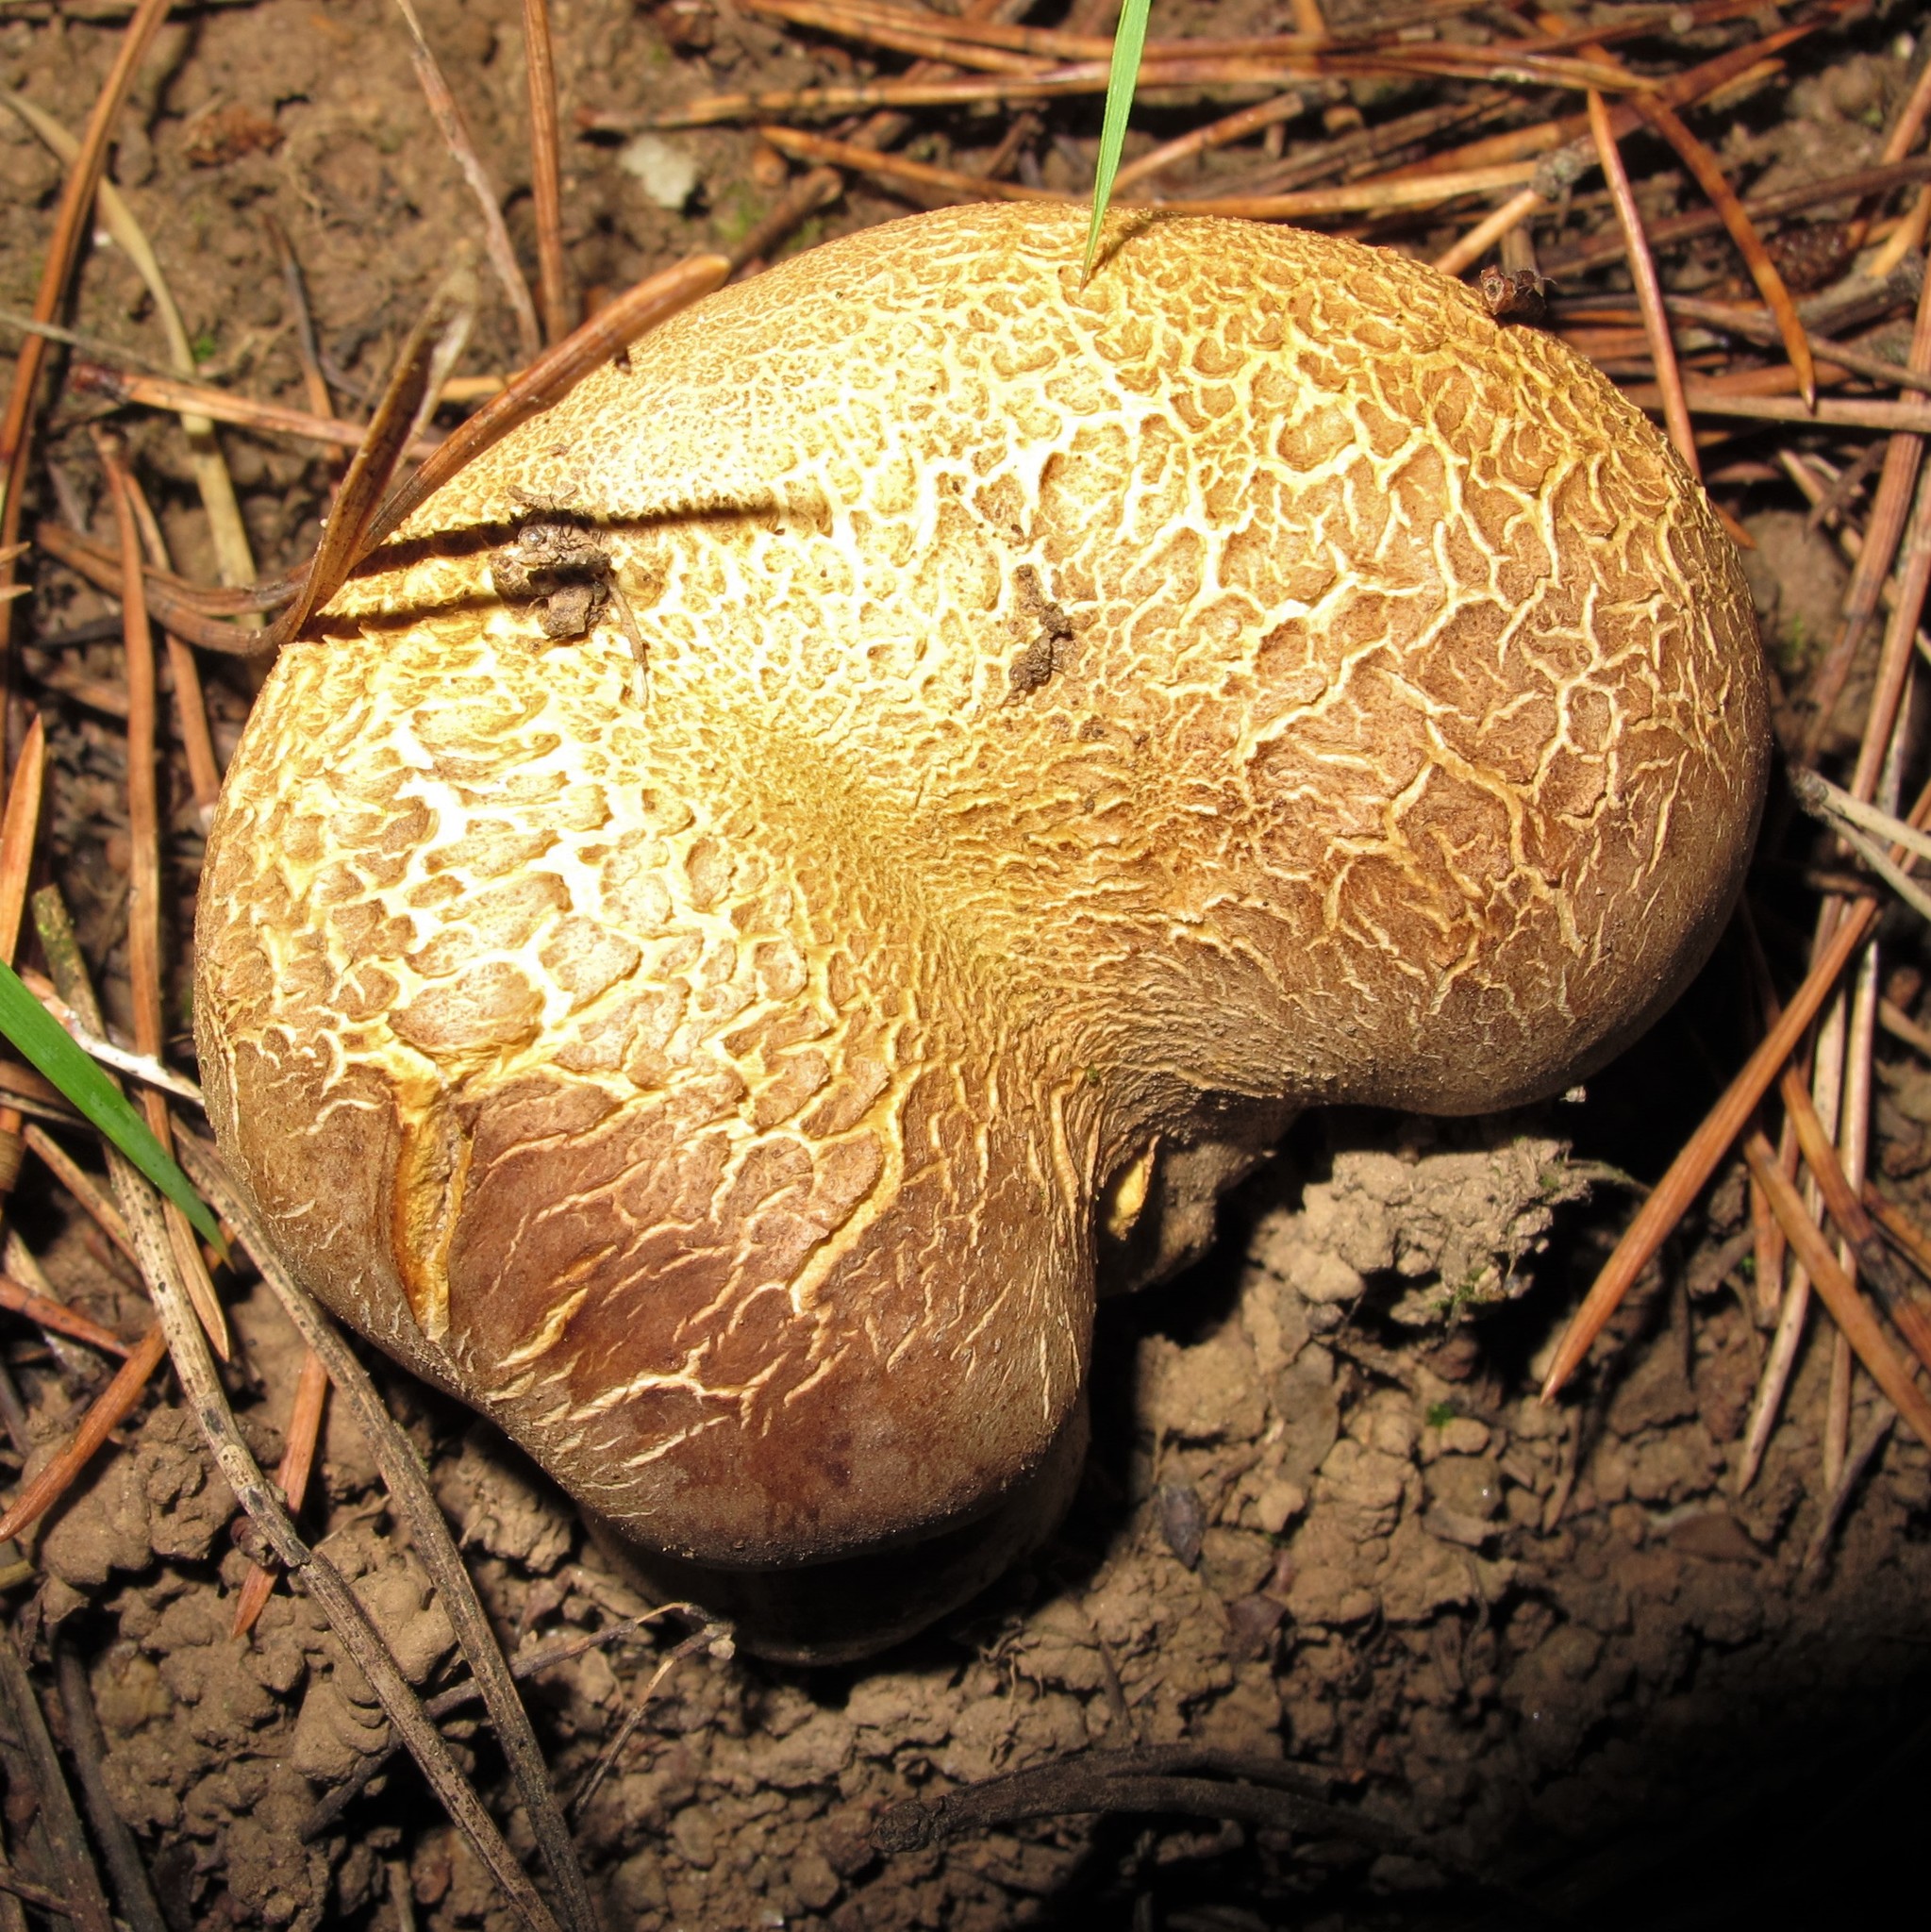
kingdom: Fungi
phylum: Basidiomycota
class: Agaricomycetes
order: Boletales
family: Sclerodermataceae
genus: Scleroderma
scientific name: Scleroderma citrinum
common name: Common earthball
